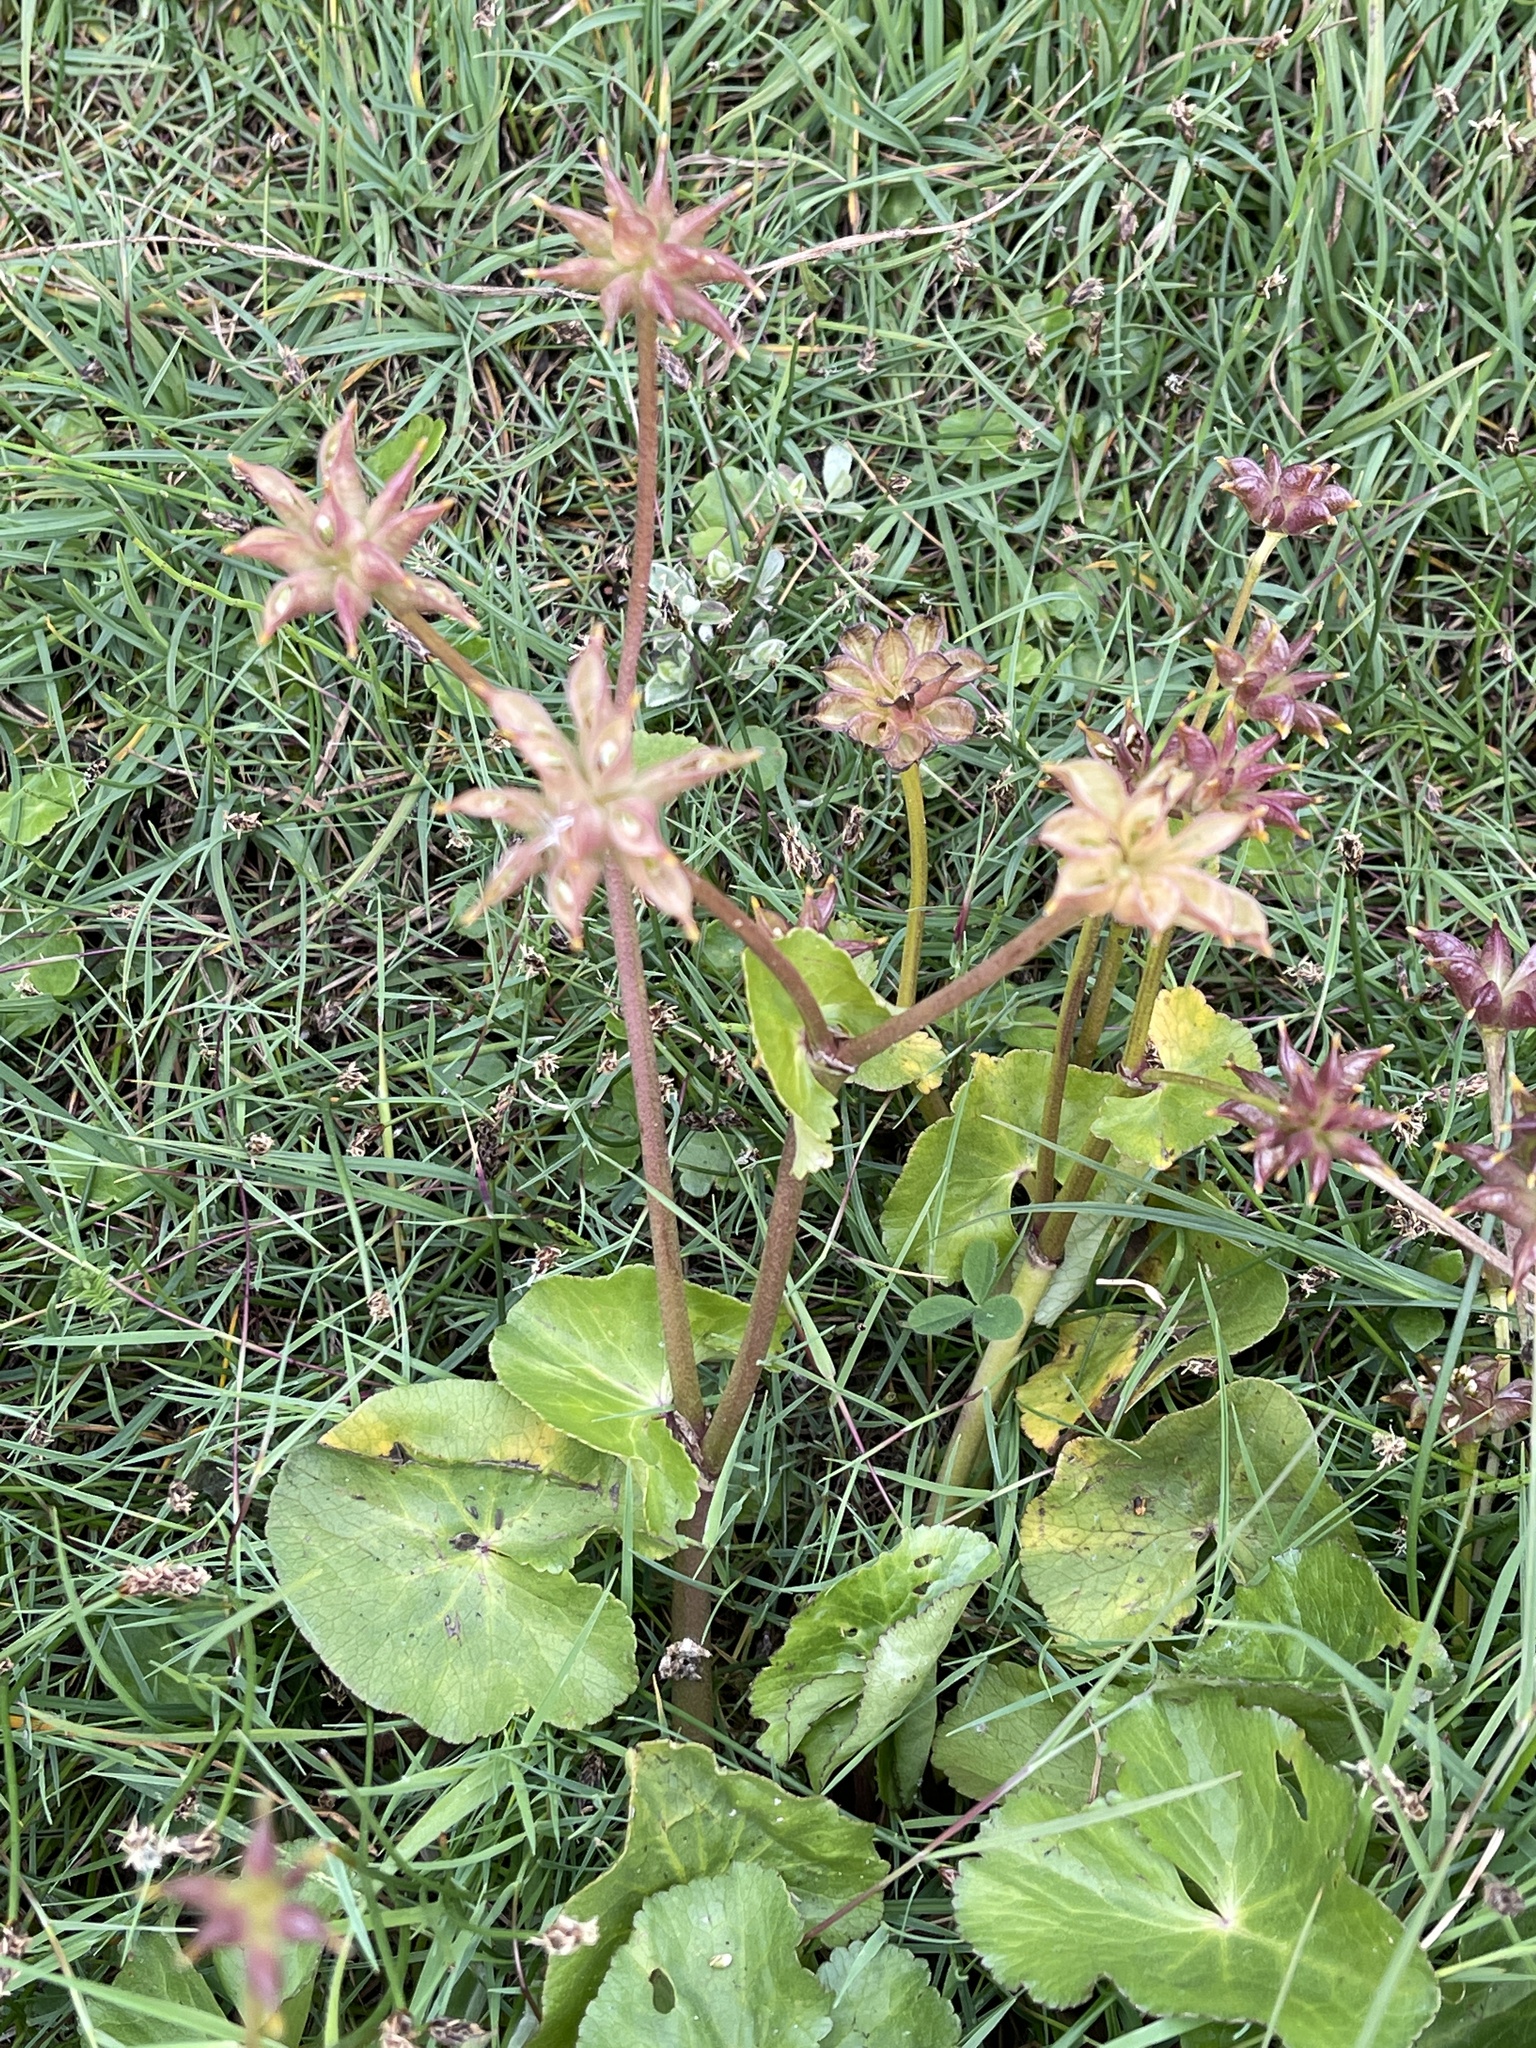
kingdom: Plantae
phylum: Tracheophyta
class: Magnoliopsida
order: Ranunculales
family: Ranunculaceae
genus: Caltha
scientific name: Caltha palustris
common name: Marsh marigold
